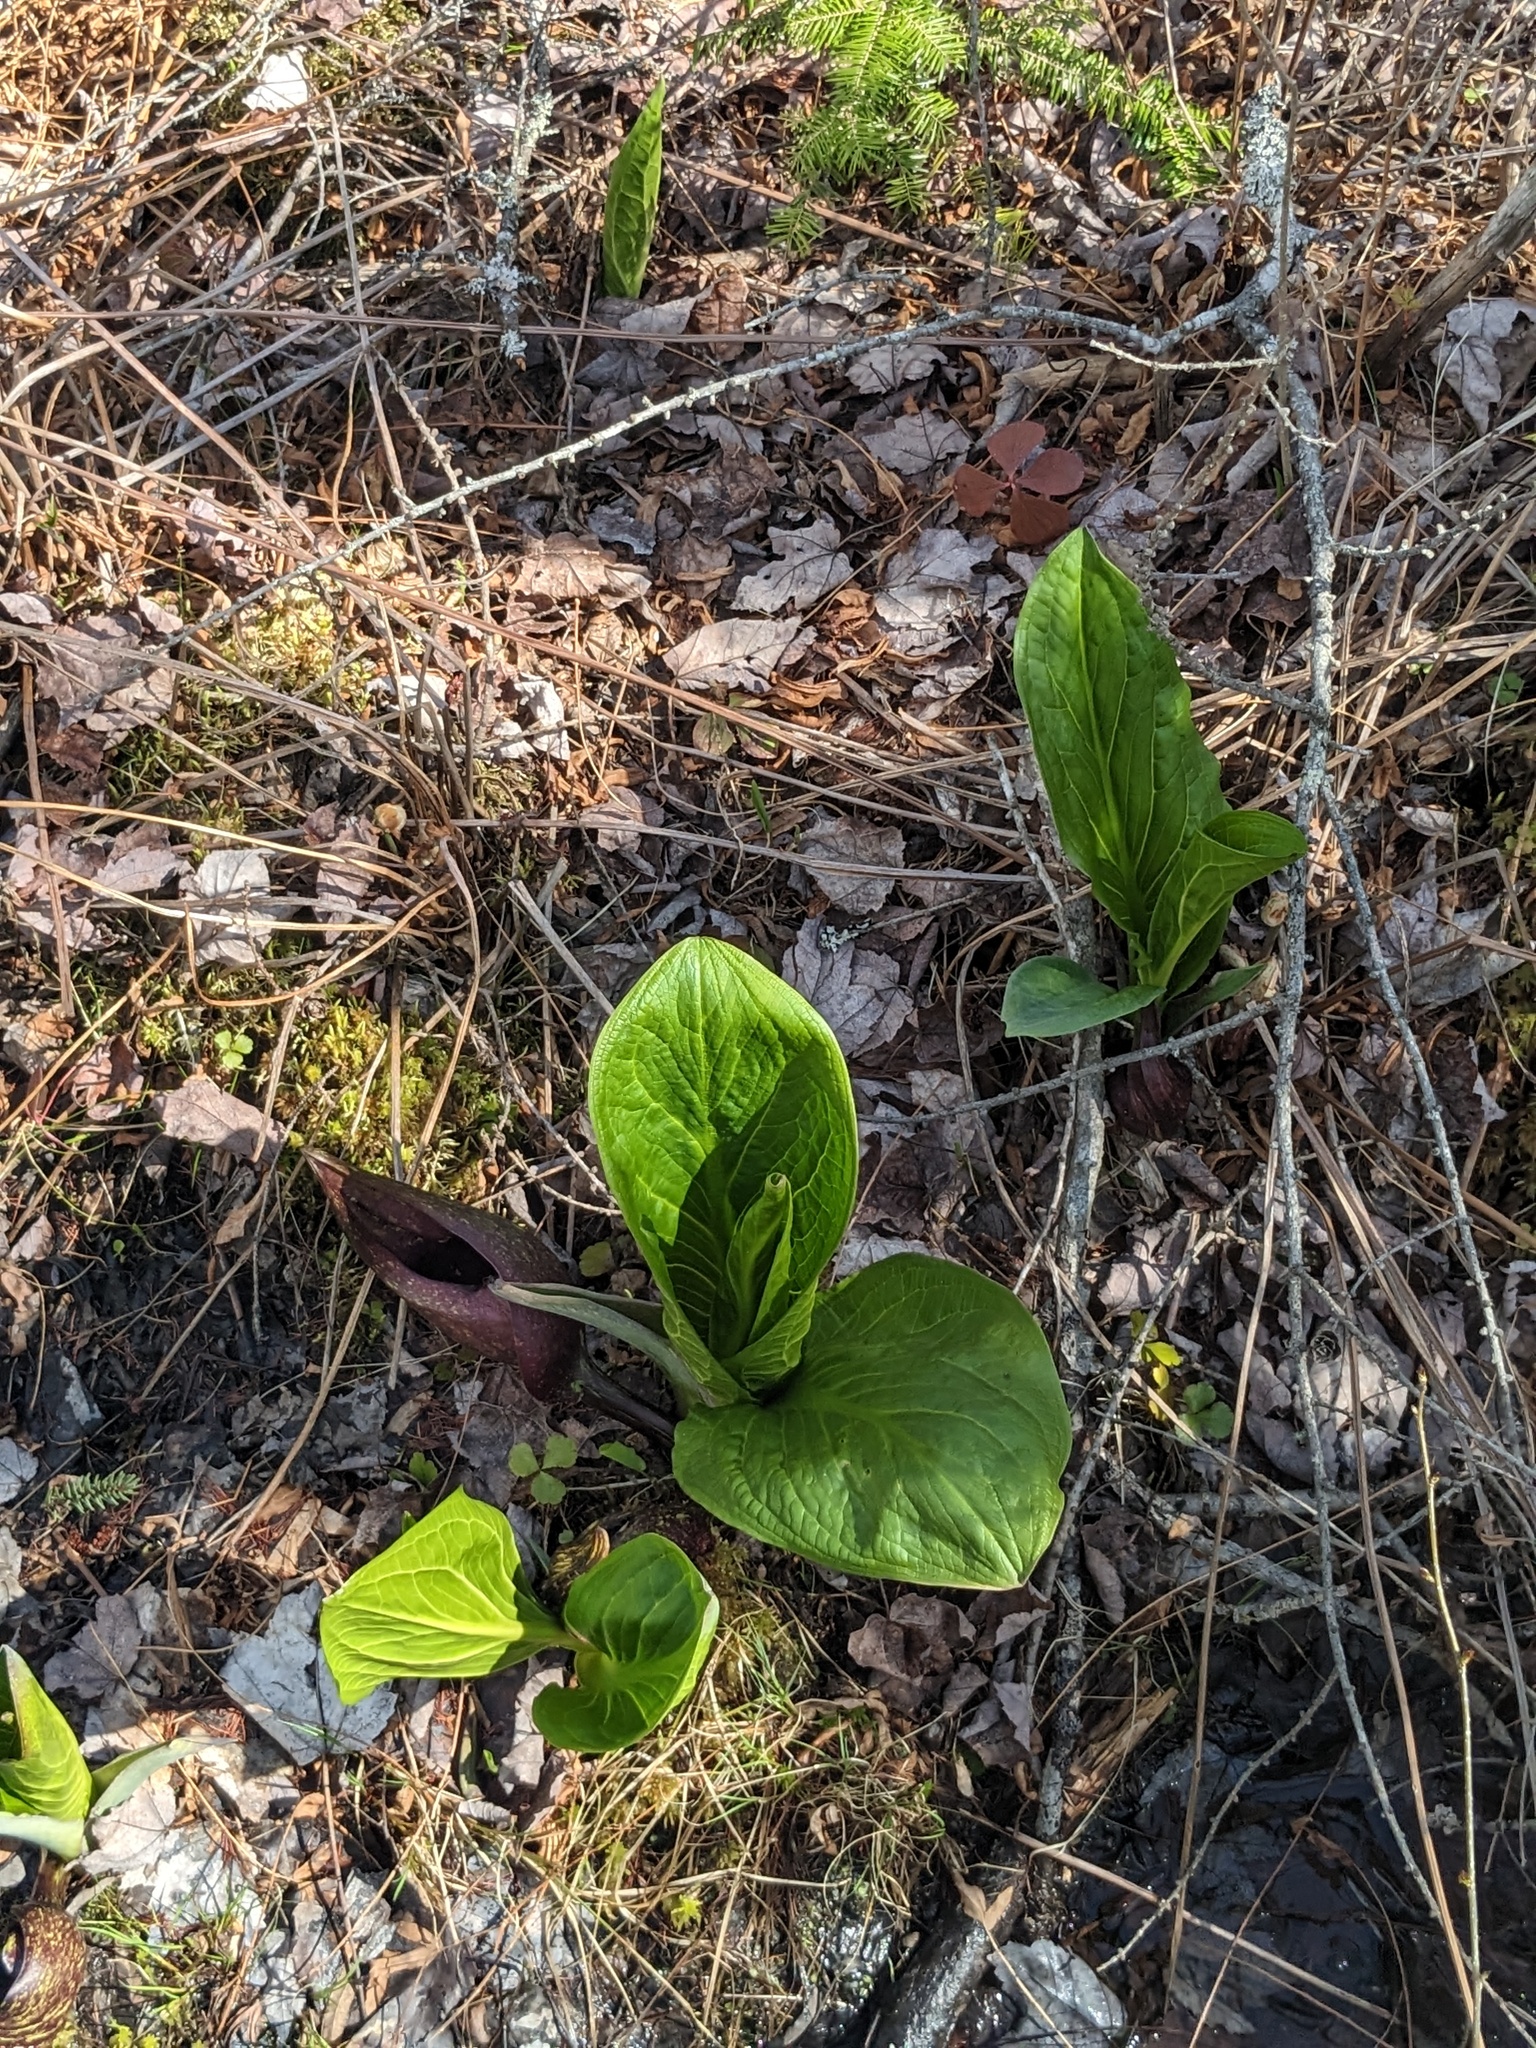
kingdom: Plantae
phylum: Tracheophyta
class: Liliopsida
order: Alismatales
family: Araceae
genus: Symplocarpus
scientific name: Symplocarpus foetidus
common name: Eastern skunk cabbage
